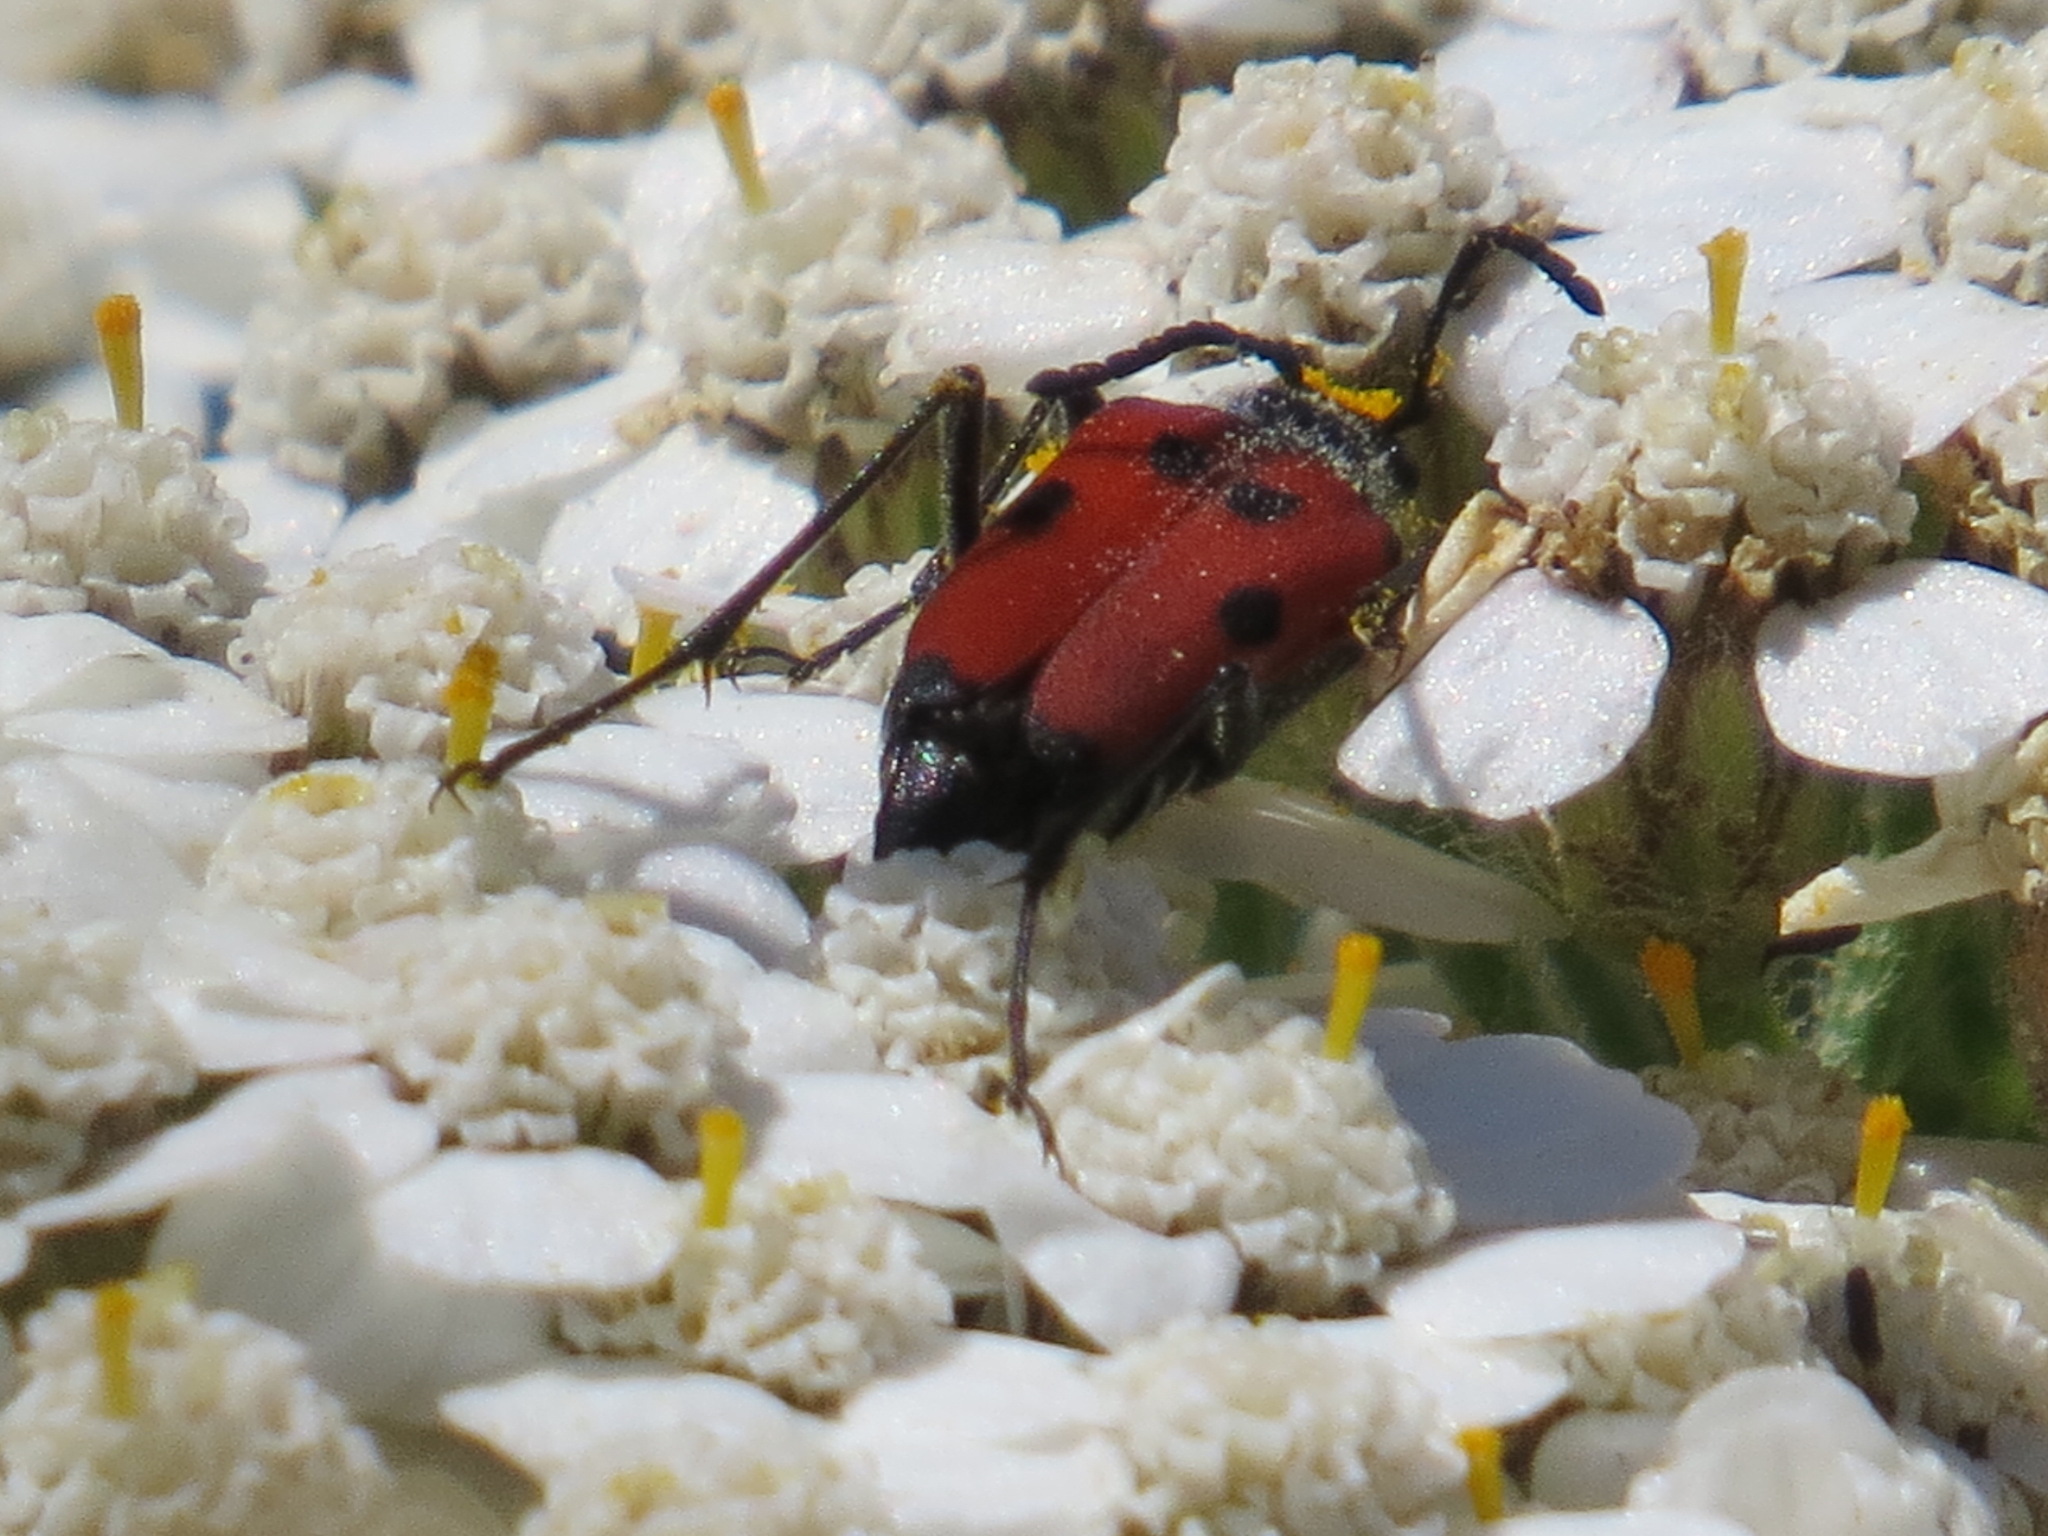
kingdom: Animalia
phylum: Arthropoda
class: Insecta
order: Coleoptera
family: Cerambycidae
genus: Anastrangalia
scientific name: Anastrangalia laetifica
